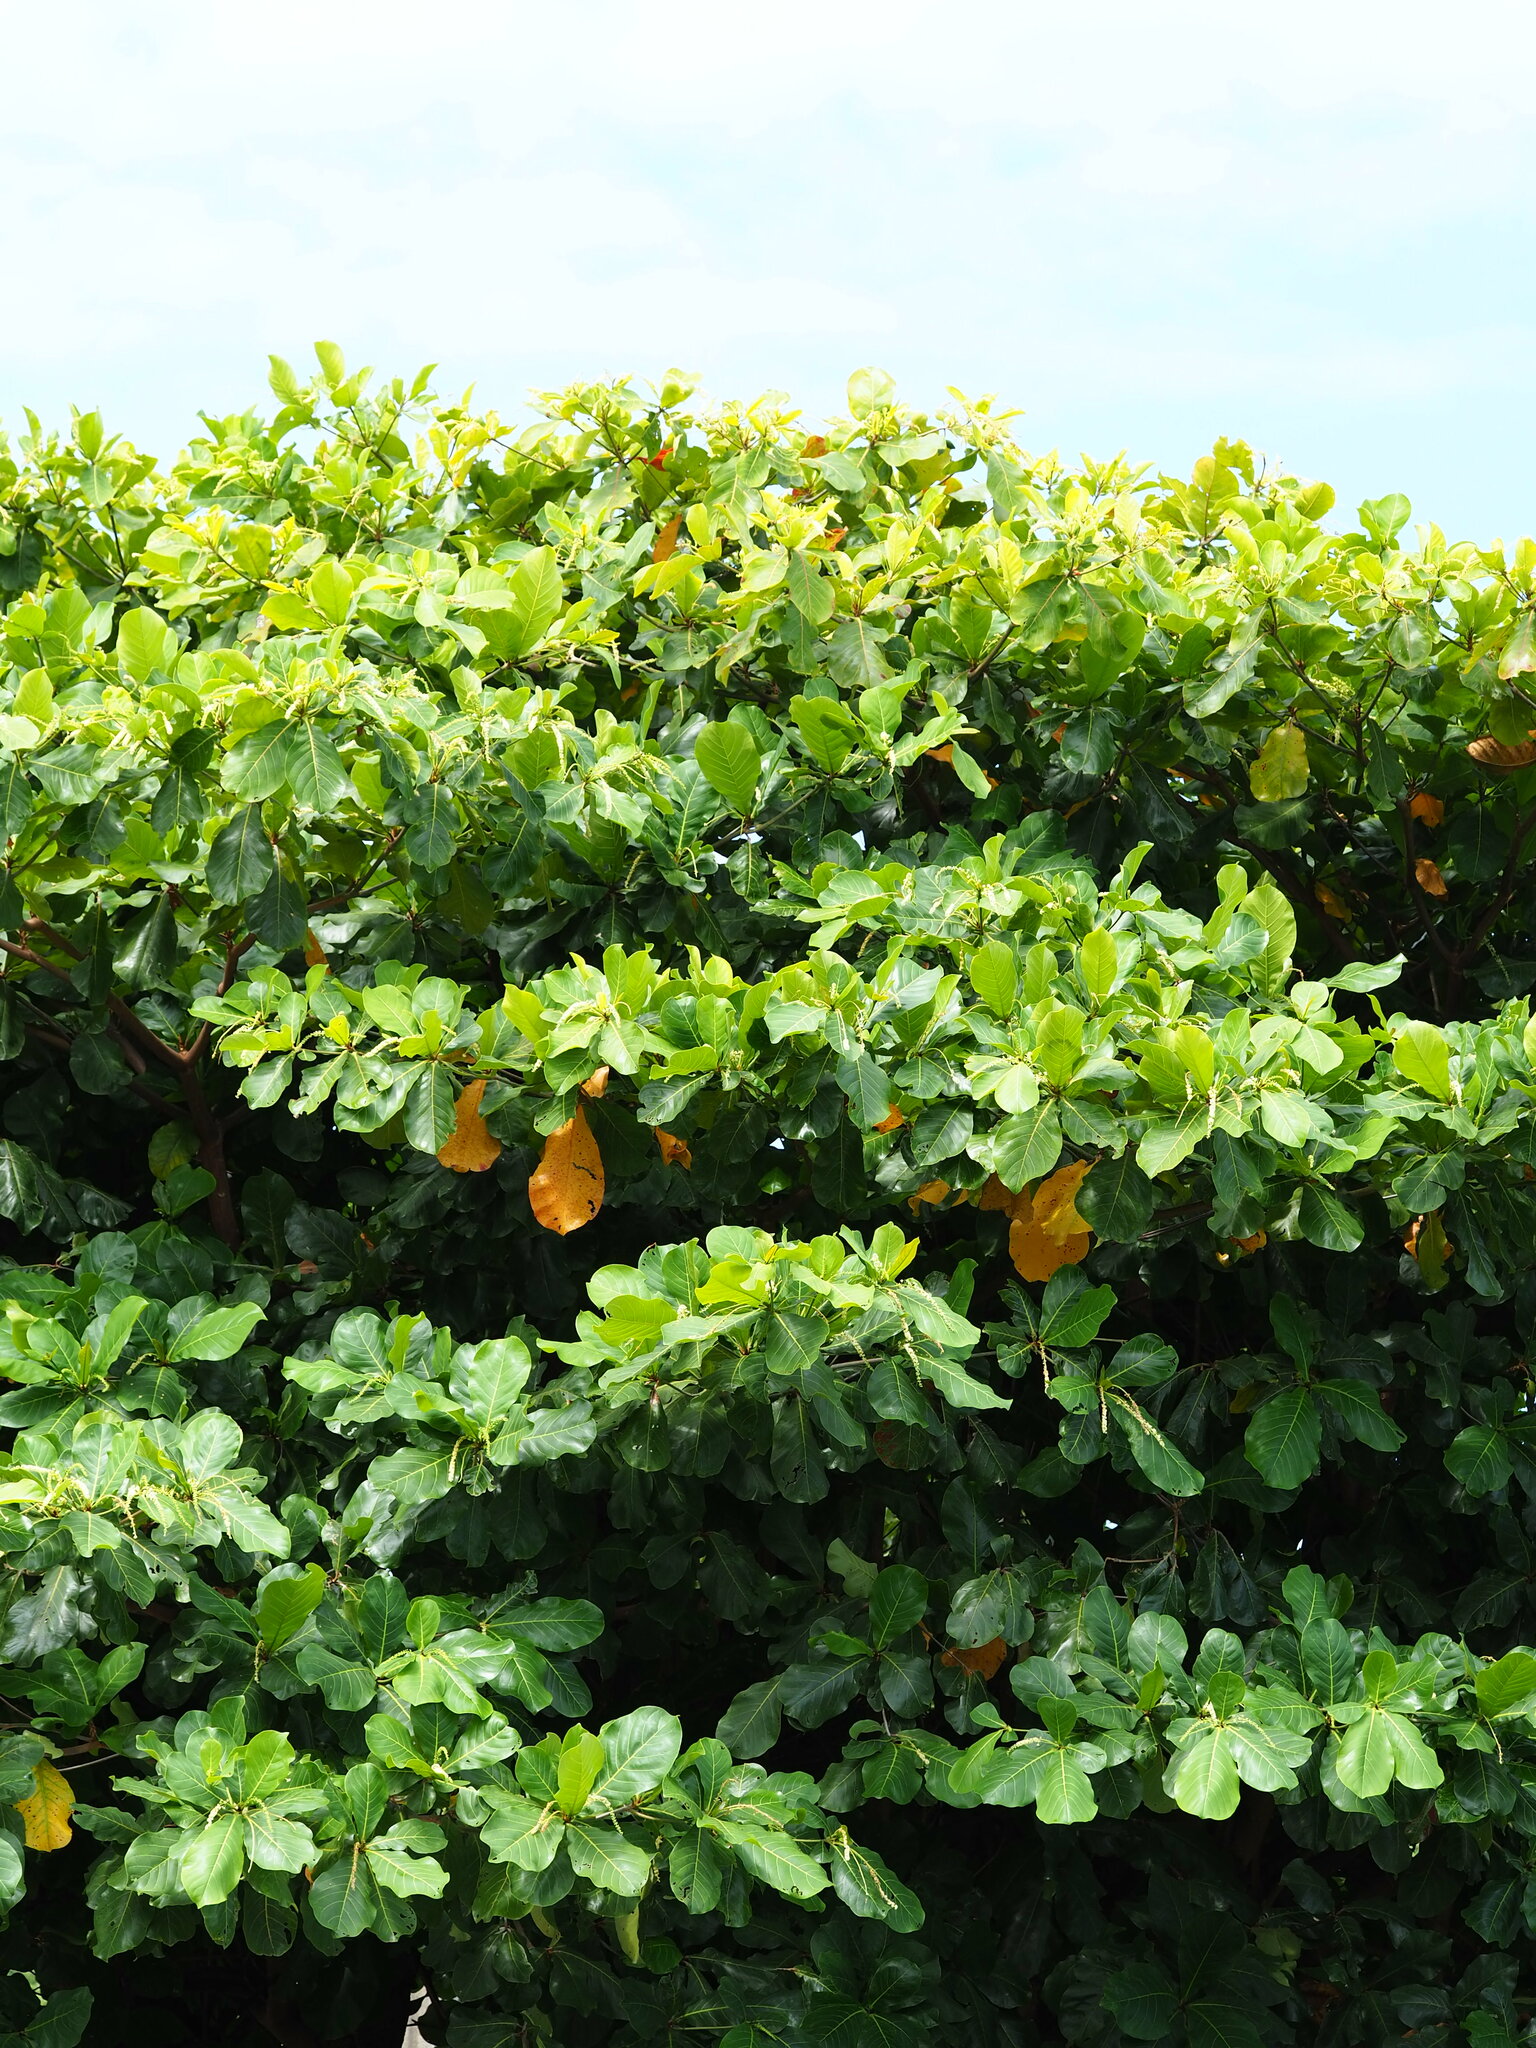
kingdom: Plantae
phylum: Tracheophyta
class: Magnoliopsida
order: Myrtales
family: Combretaceae
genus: Terminalia
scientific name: Terminalia catappa
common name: Tropical almond
